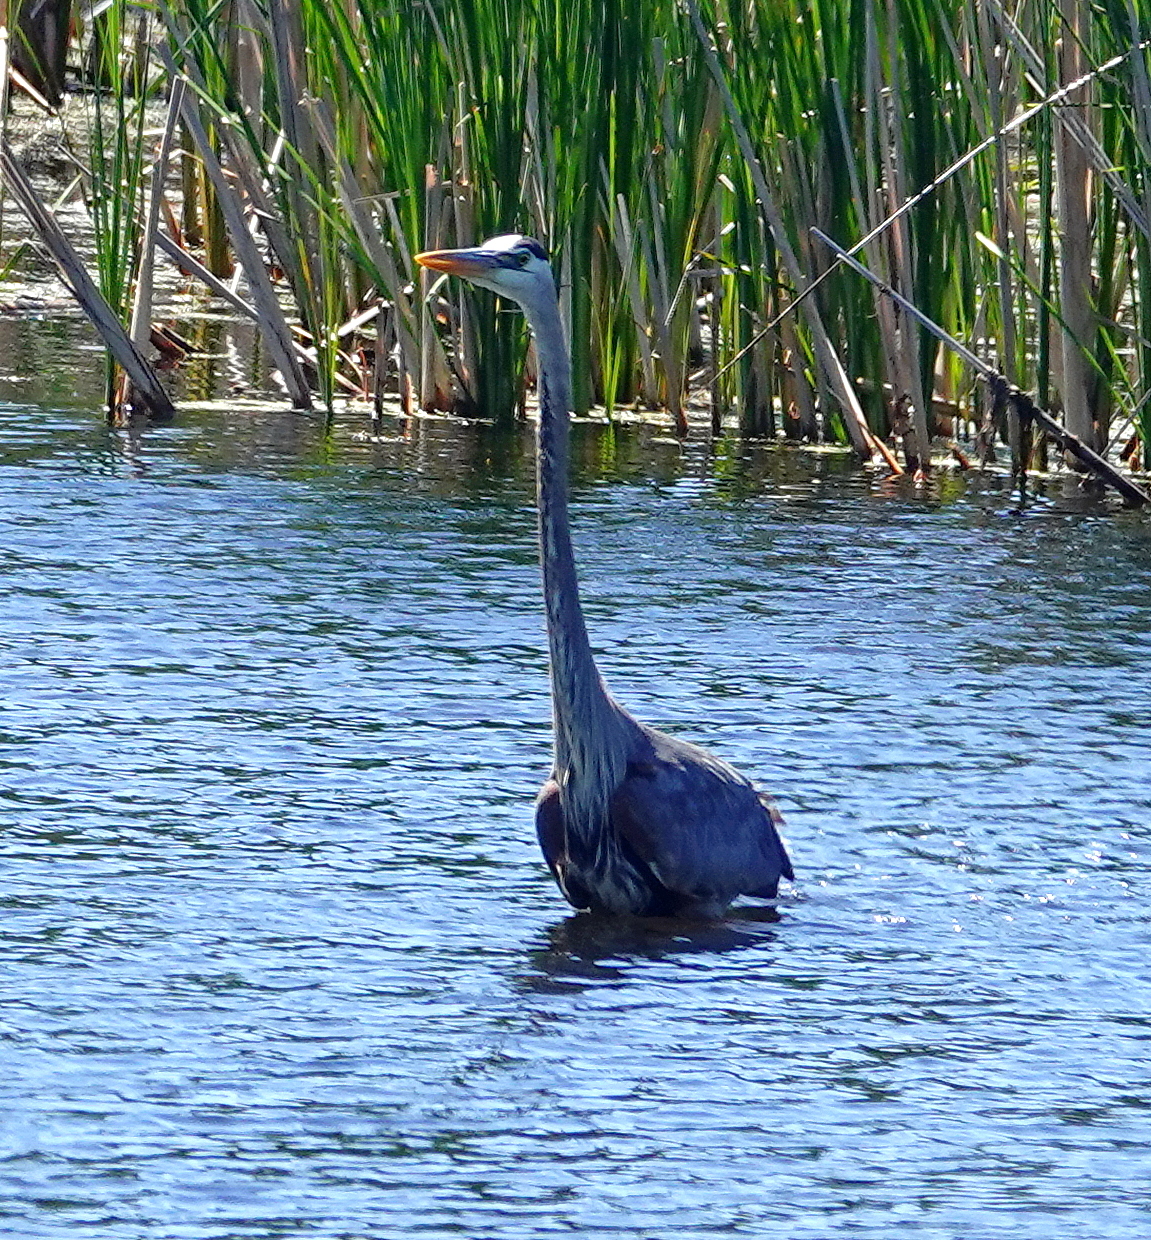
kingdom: Animalia
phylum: Chordata
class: Aves
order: Pelecaniformes
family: Ardeidae
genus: Ardea
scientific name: Ardea herodias
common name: Great blue heron
